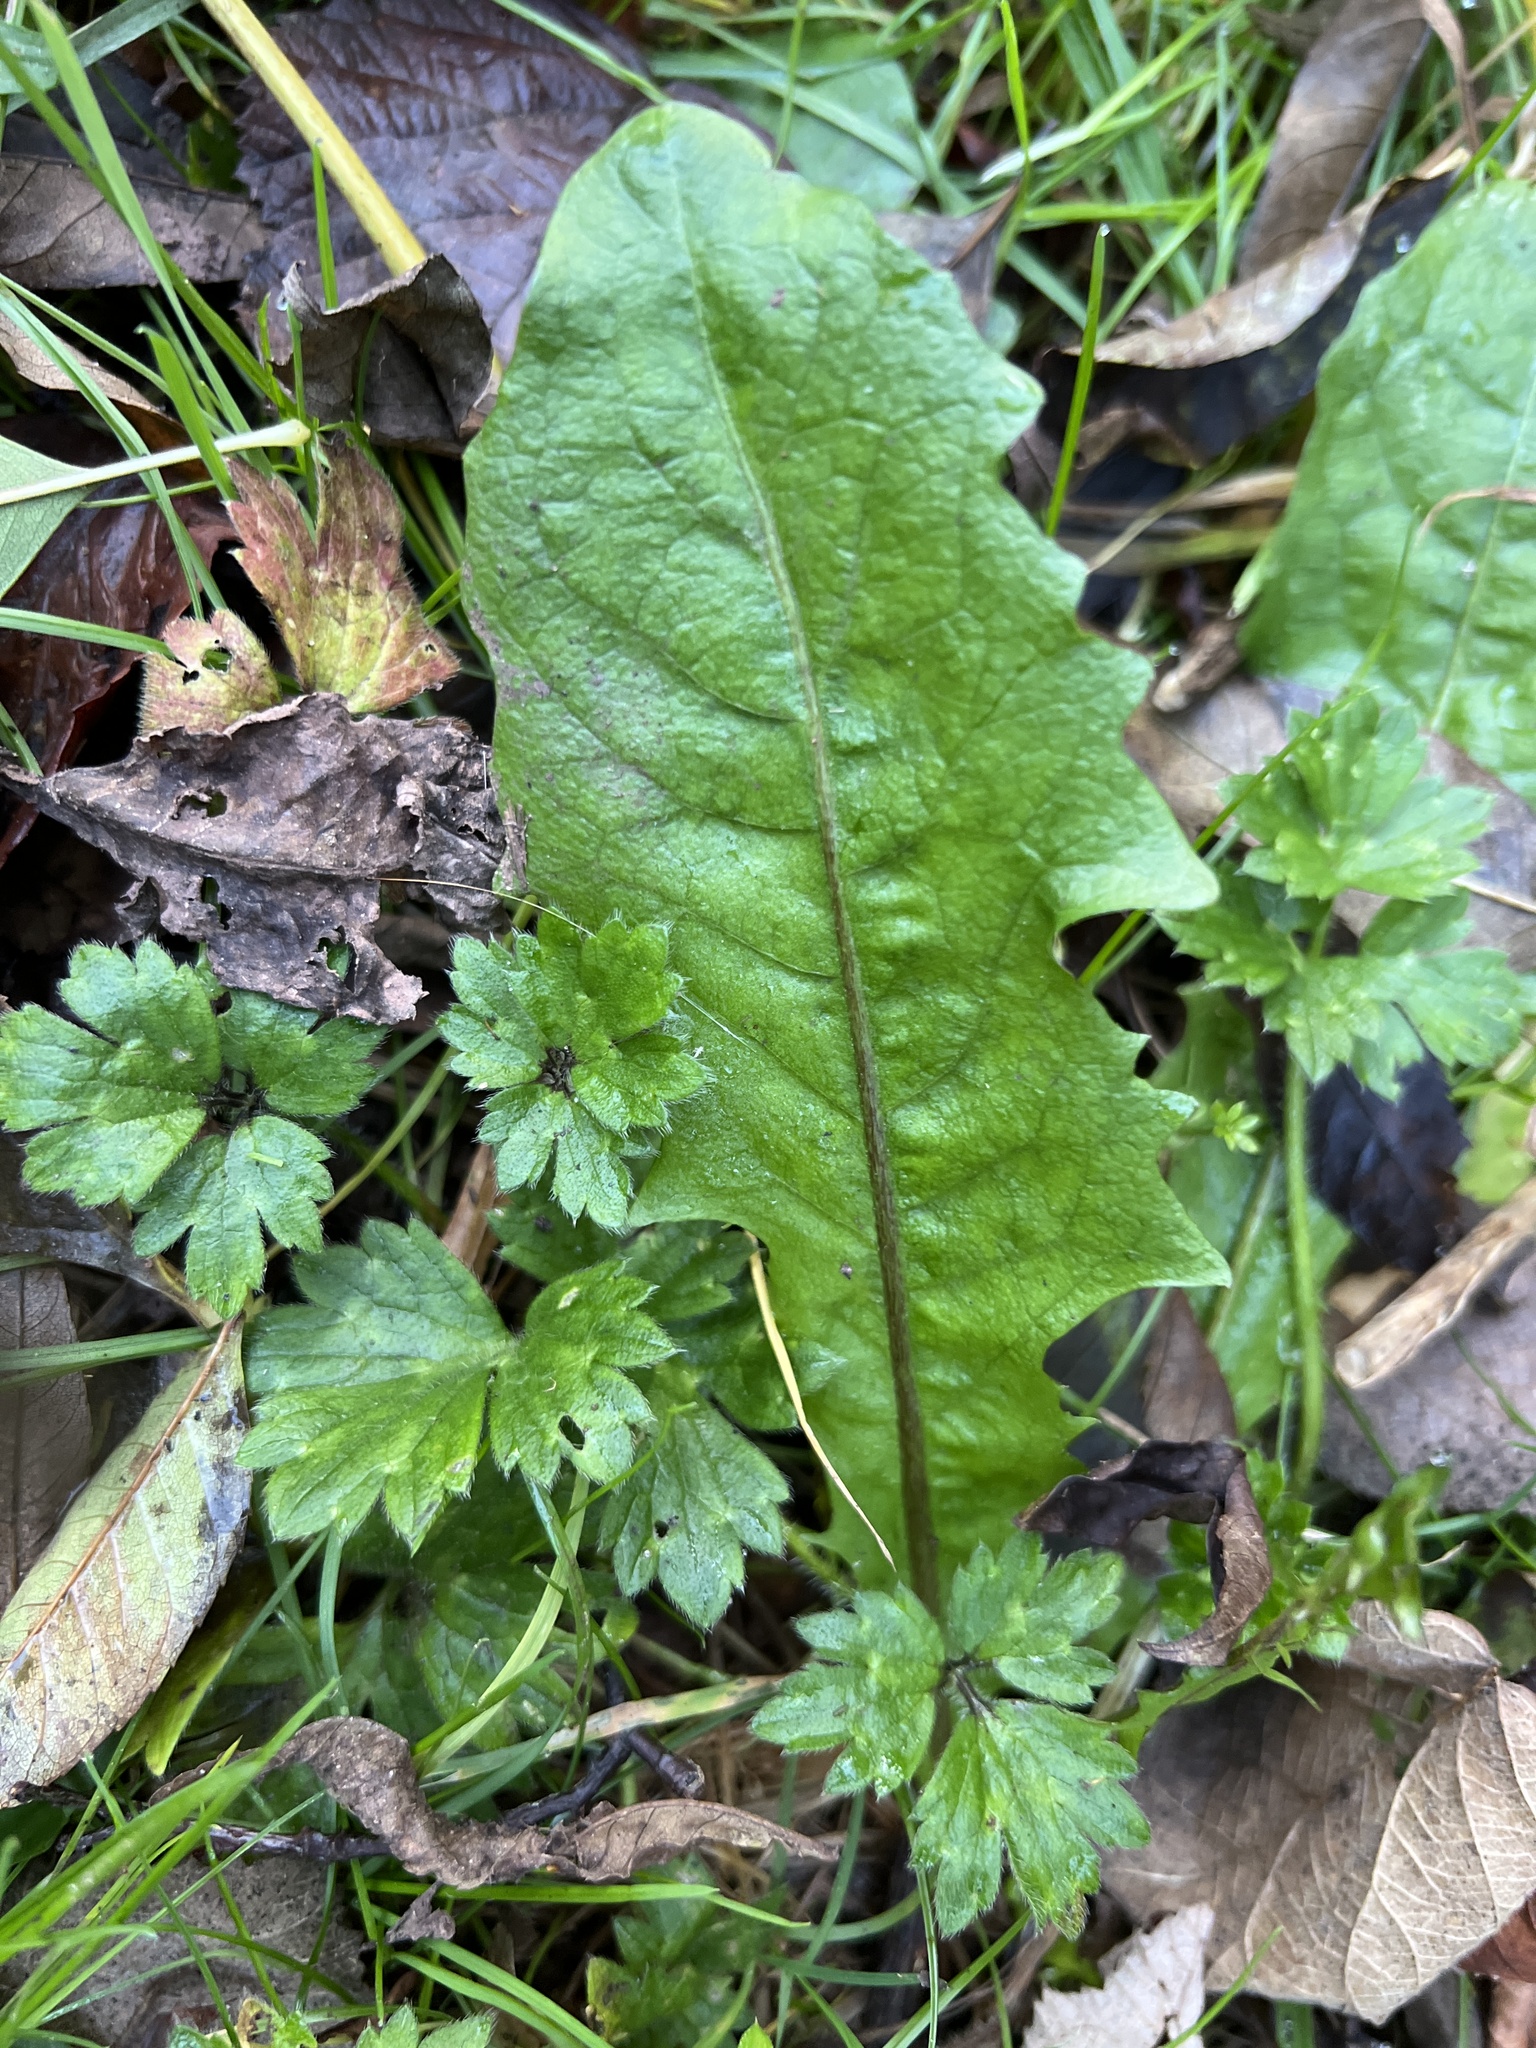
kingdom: Plantae
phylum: Tracheophyta
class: Magnoliopsida
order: Asterales
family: Asteraceae
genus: Taraxacum
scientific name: Taraxacum officinale
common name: Common dandelion
